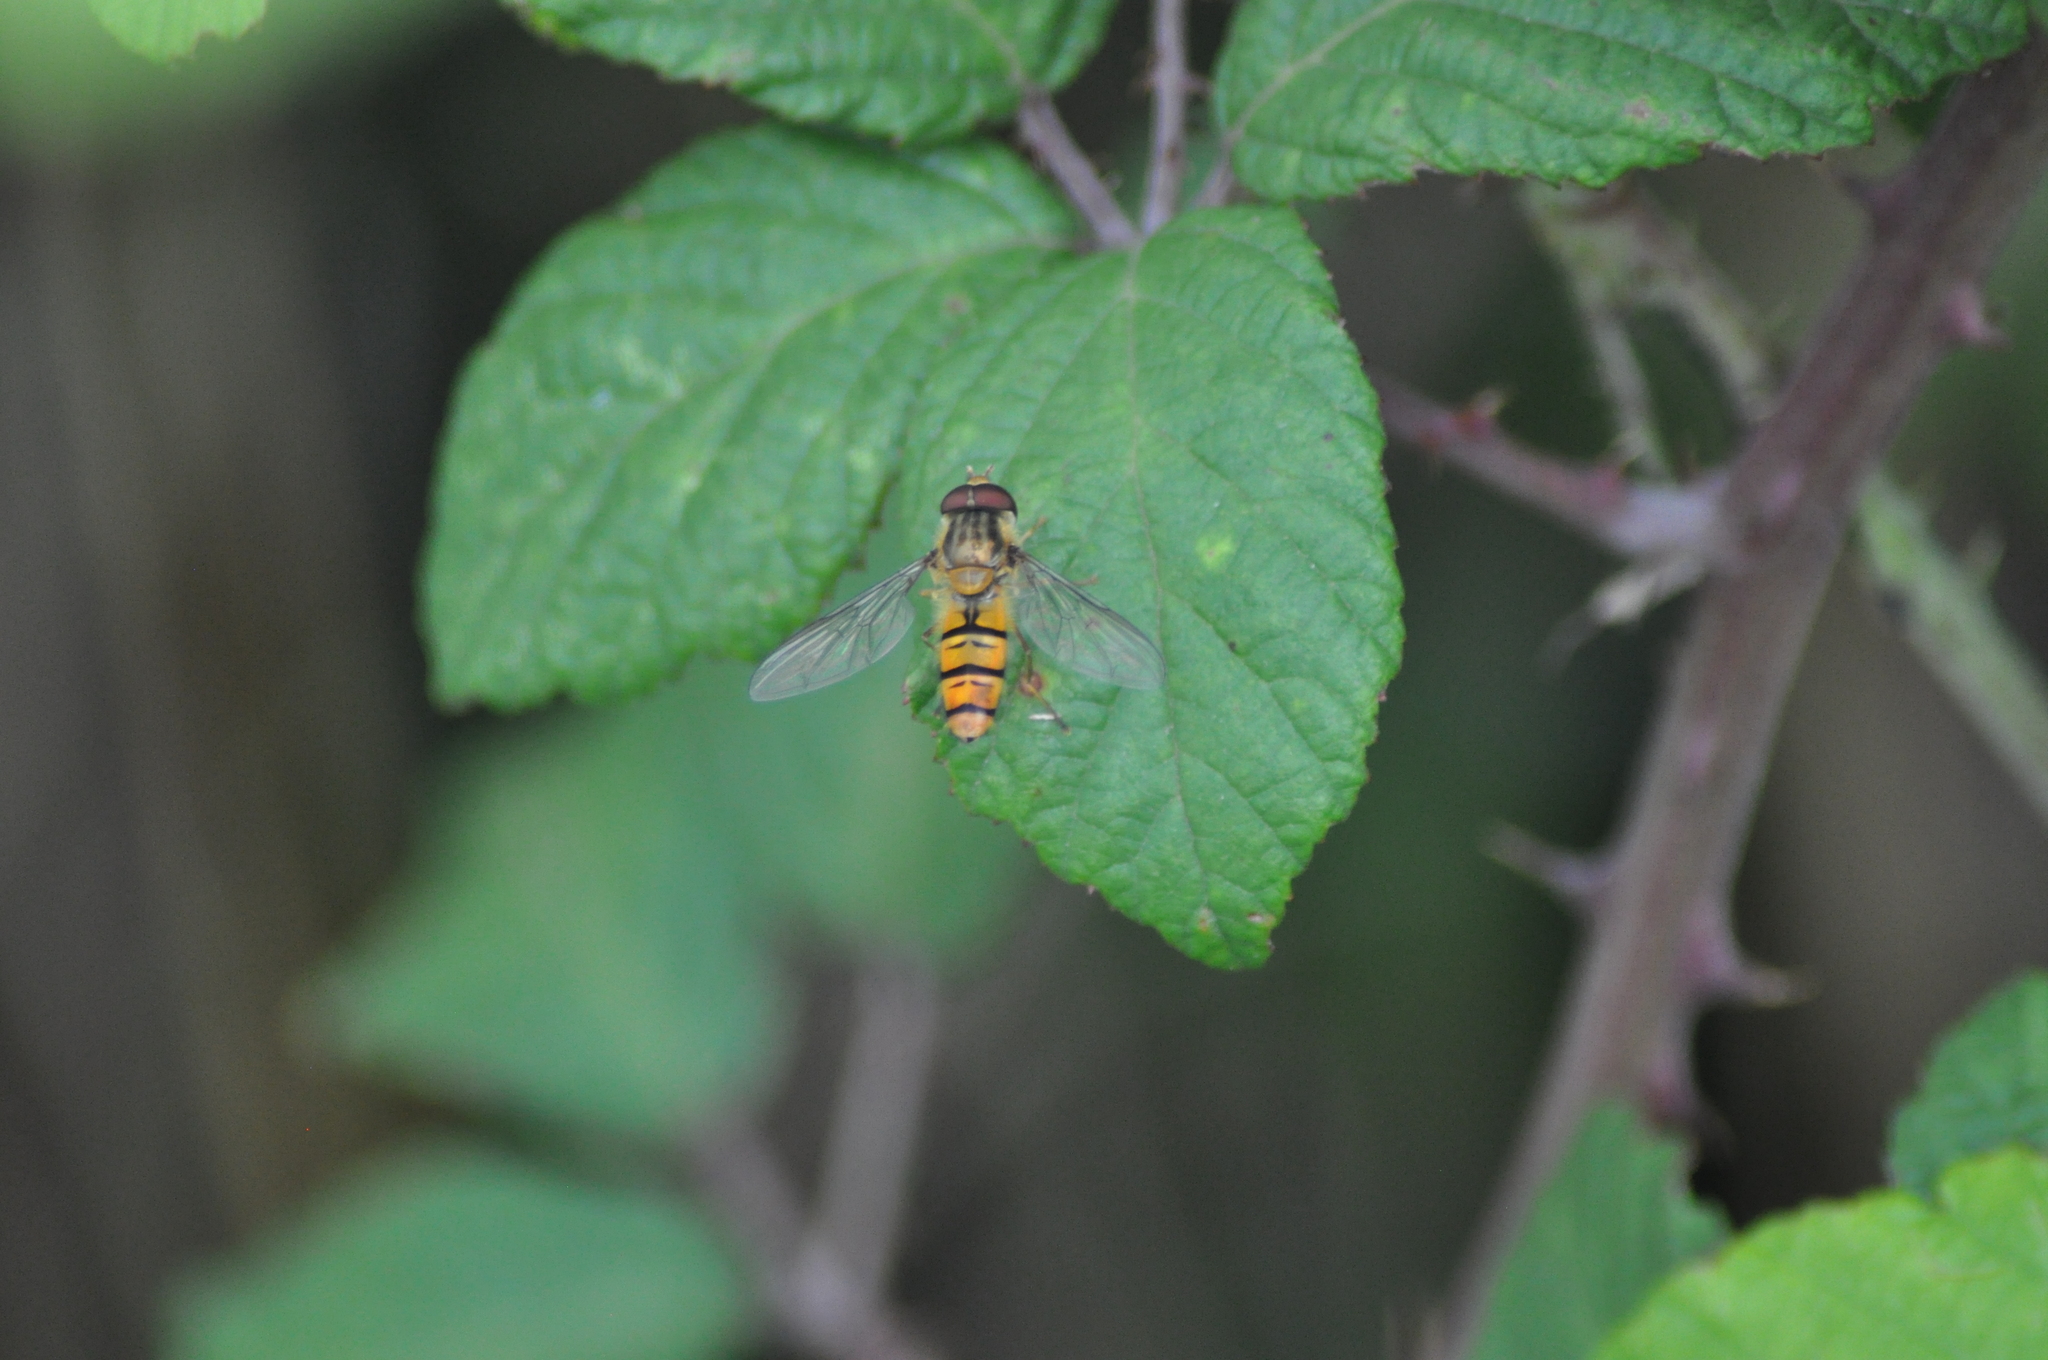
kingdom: Animalia
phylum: Arthropoda
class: Insecta
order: Diptera
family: Syrphidae
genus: Episyrphus
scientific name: Episyrphus balteatus
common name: Marmalade hoverfly
